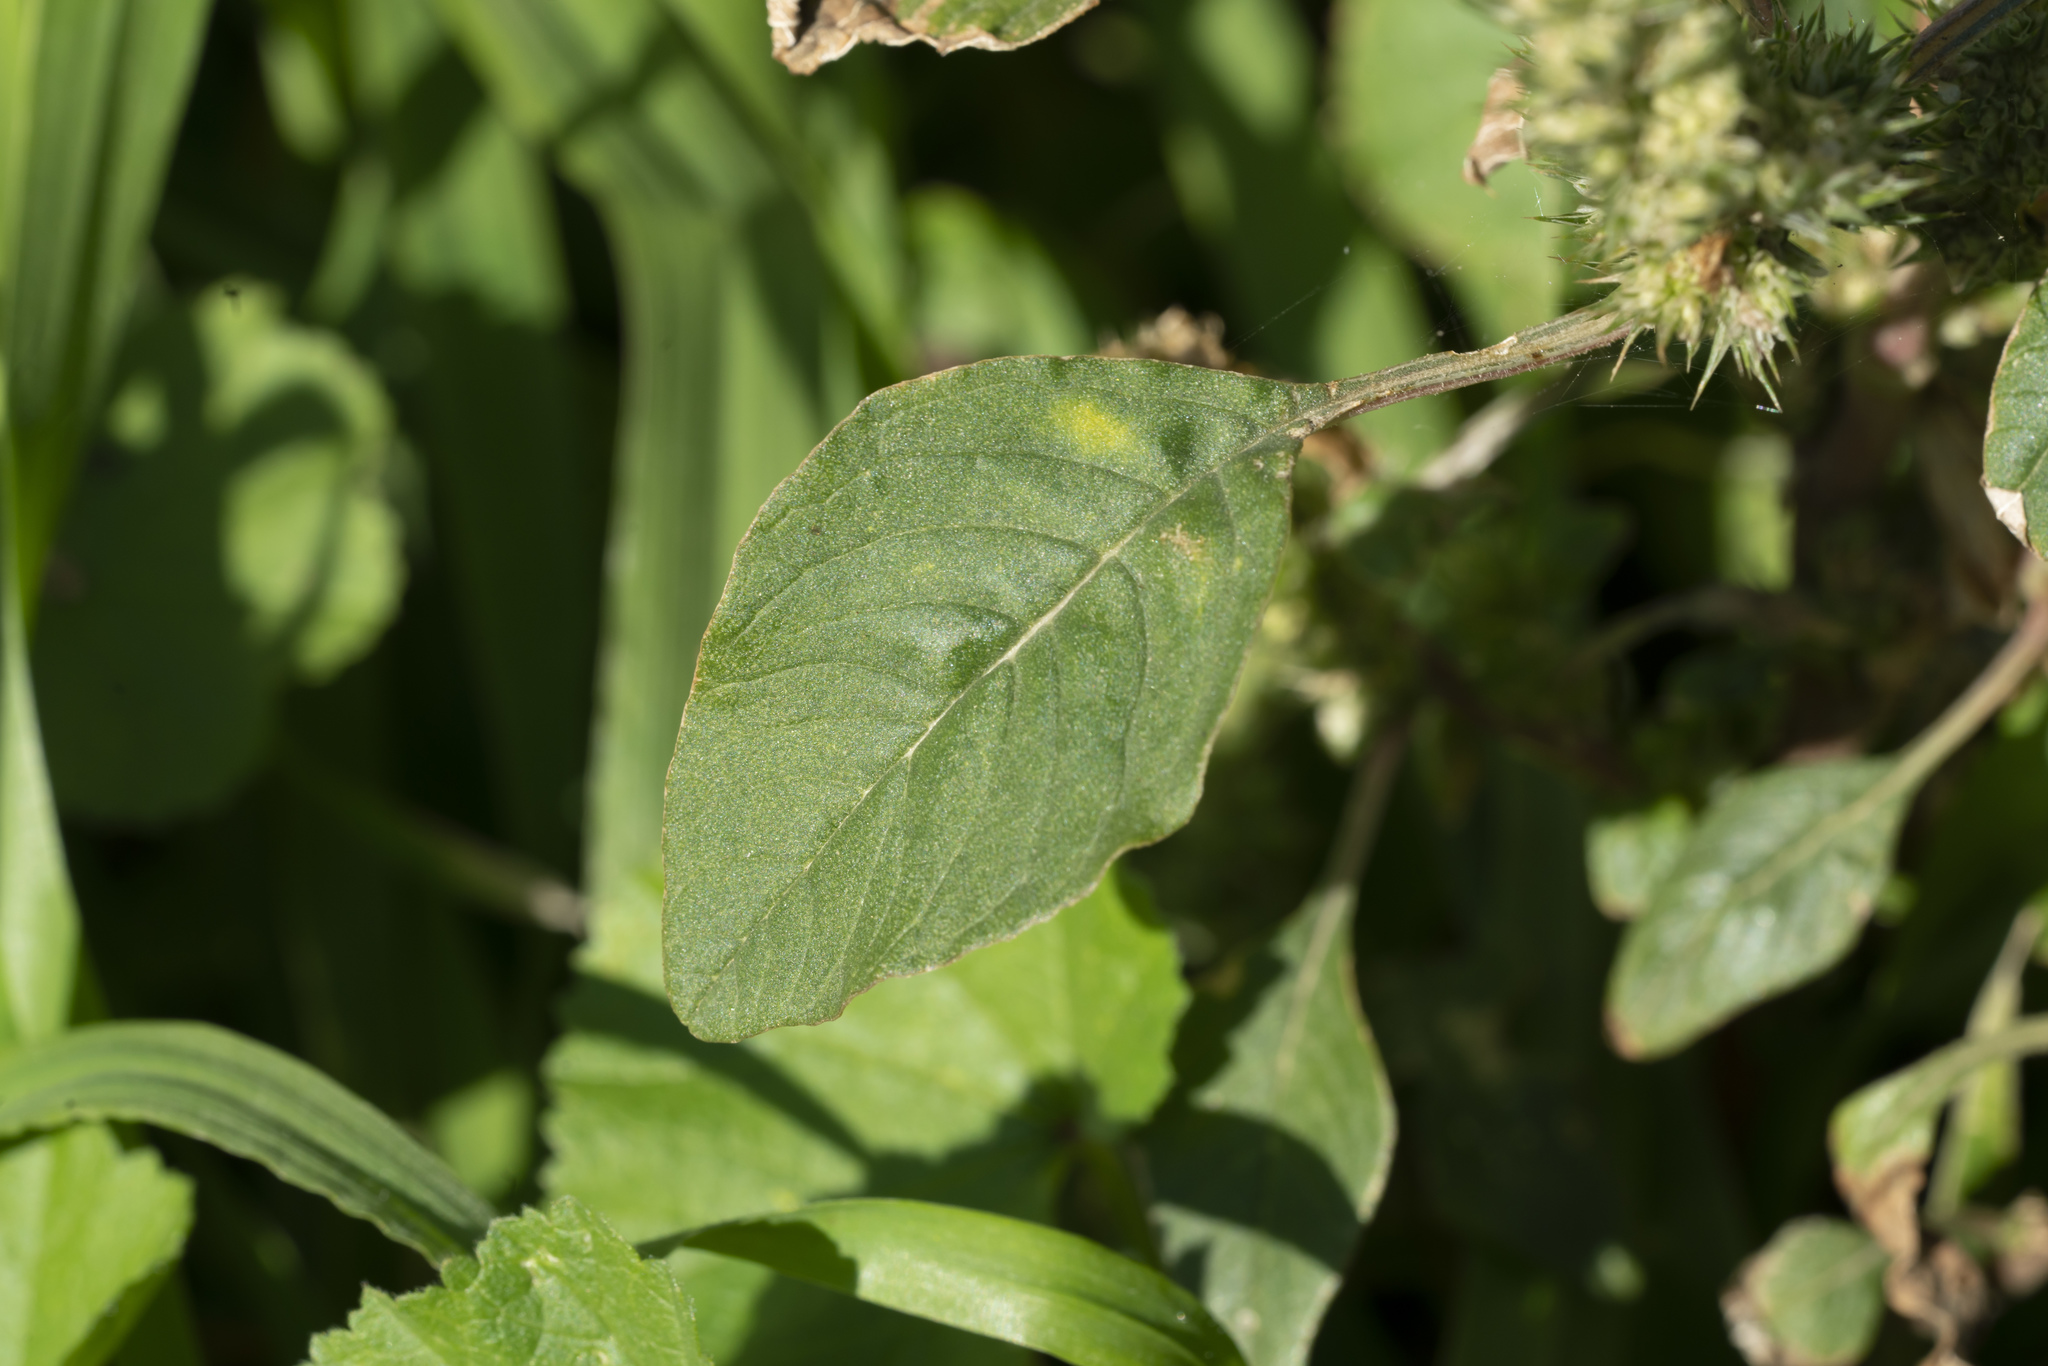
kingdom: Plantae
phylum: Tracheophyta
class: Magnoliopsida
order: Caryophyllales
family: Amaranthaceae
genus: Amaranthus
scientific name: Amaranthus retroflexus
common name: Redroot amaranth
